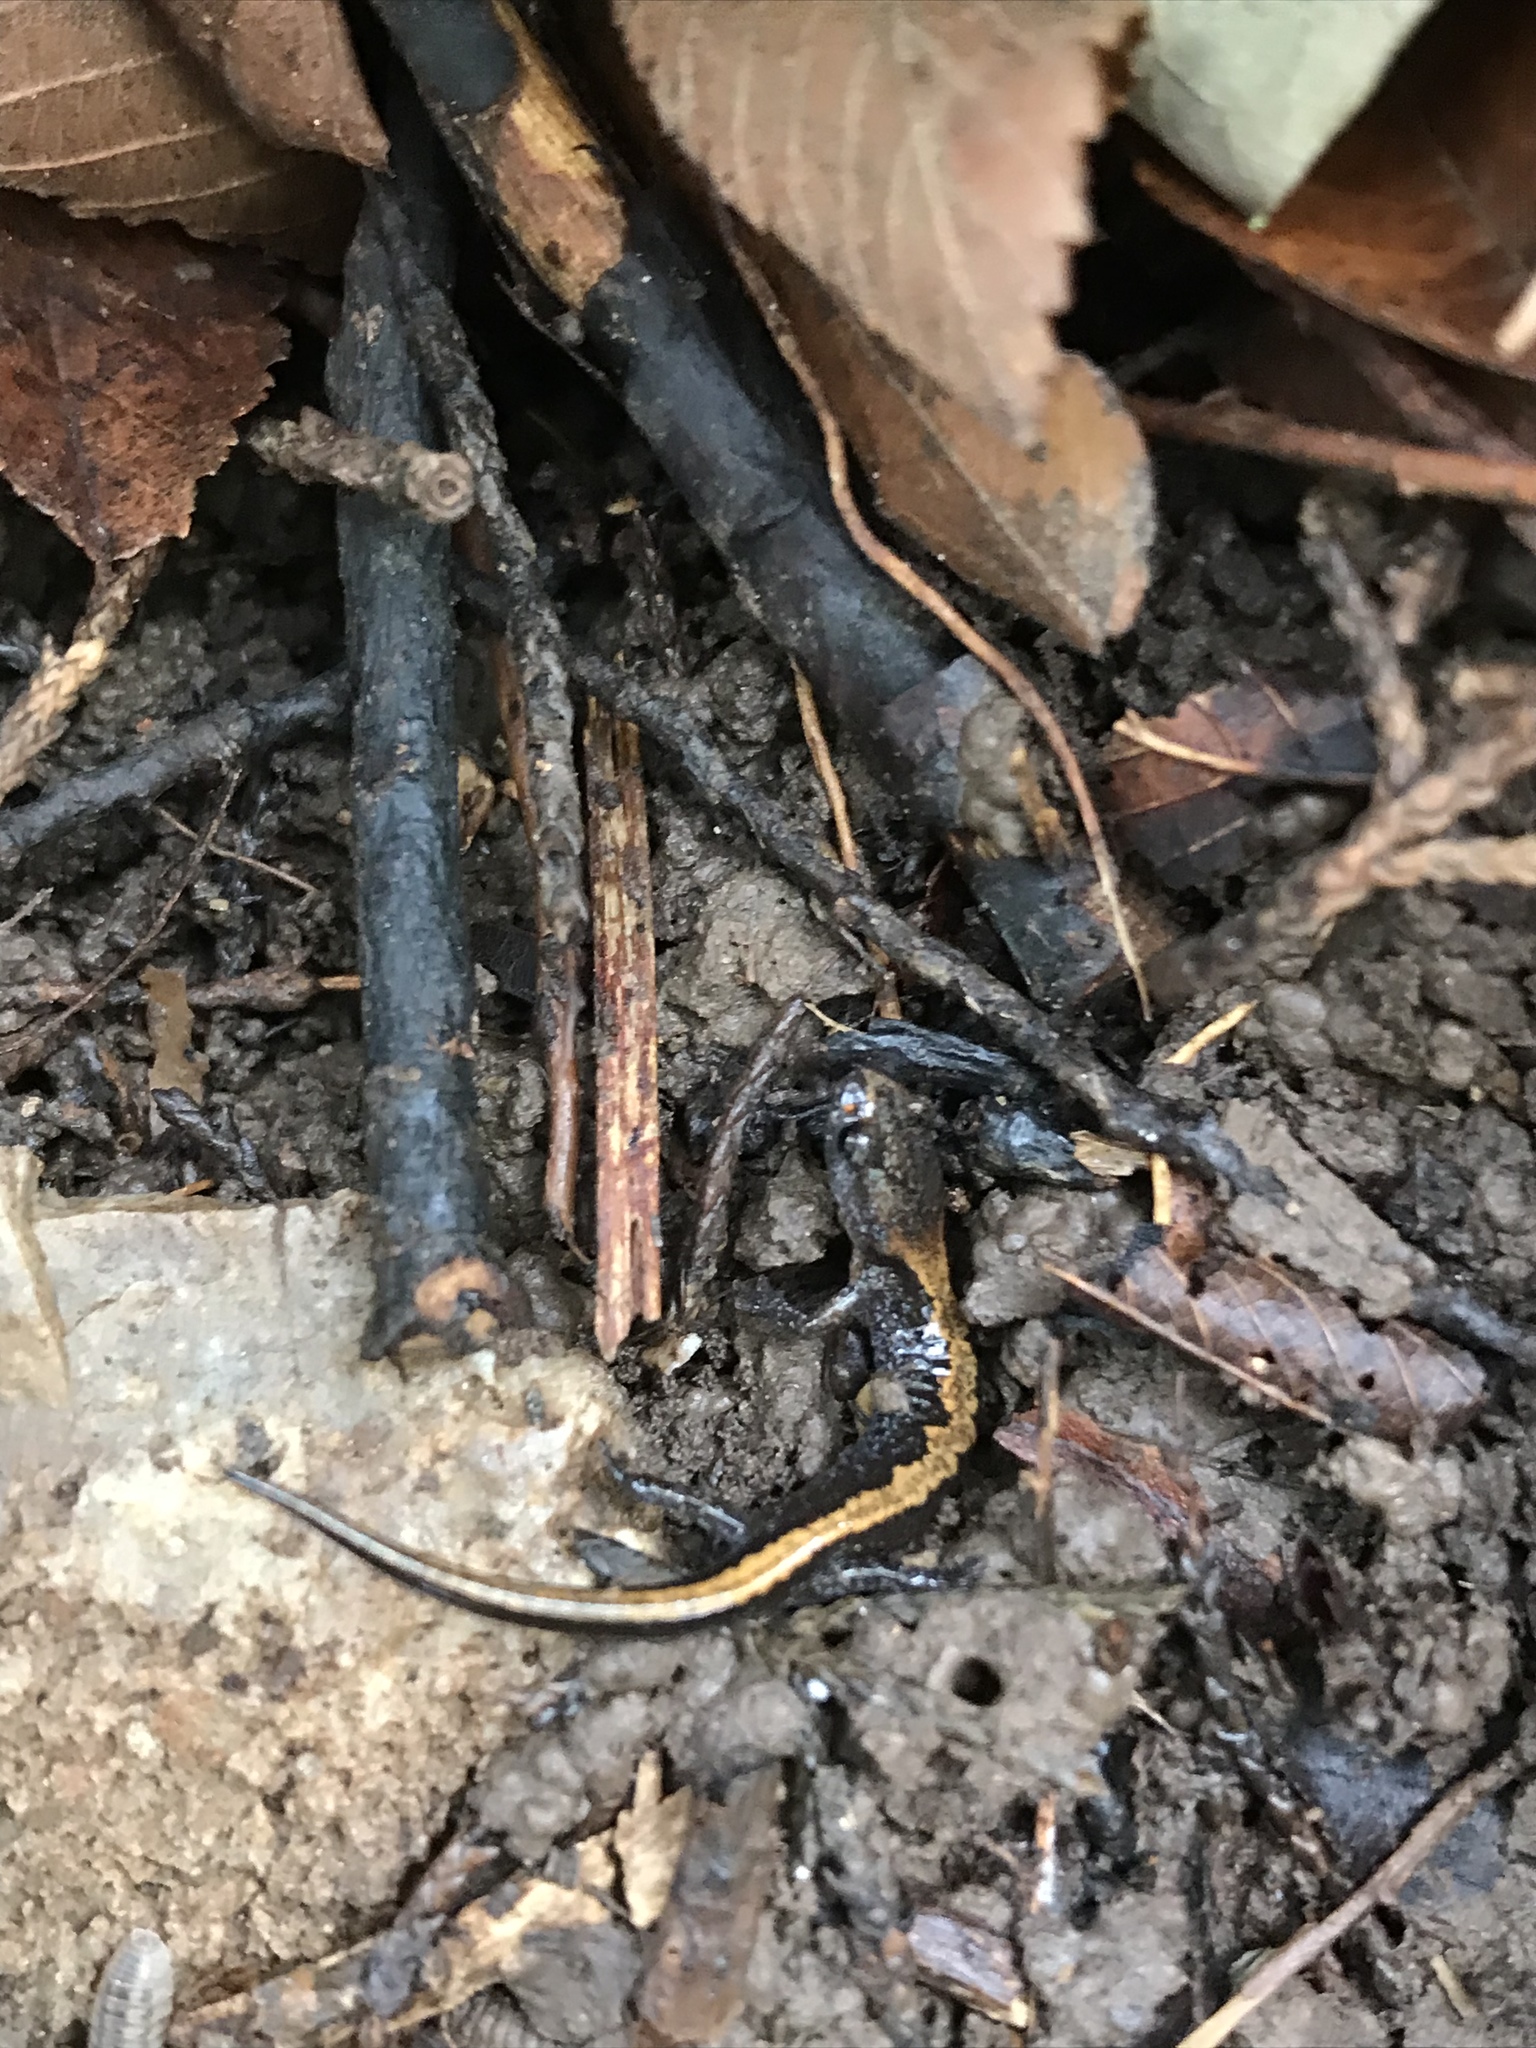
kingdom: Animalia
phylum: Chordata
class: Amphibia
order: Caudata
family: Plethodontidae
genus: Plethodon
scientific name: Plethodon dorsalis
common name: Northern zigzag salamander
